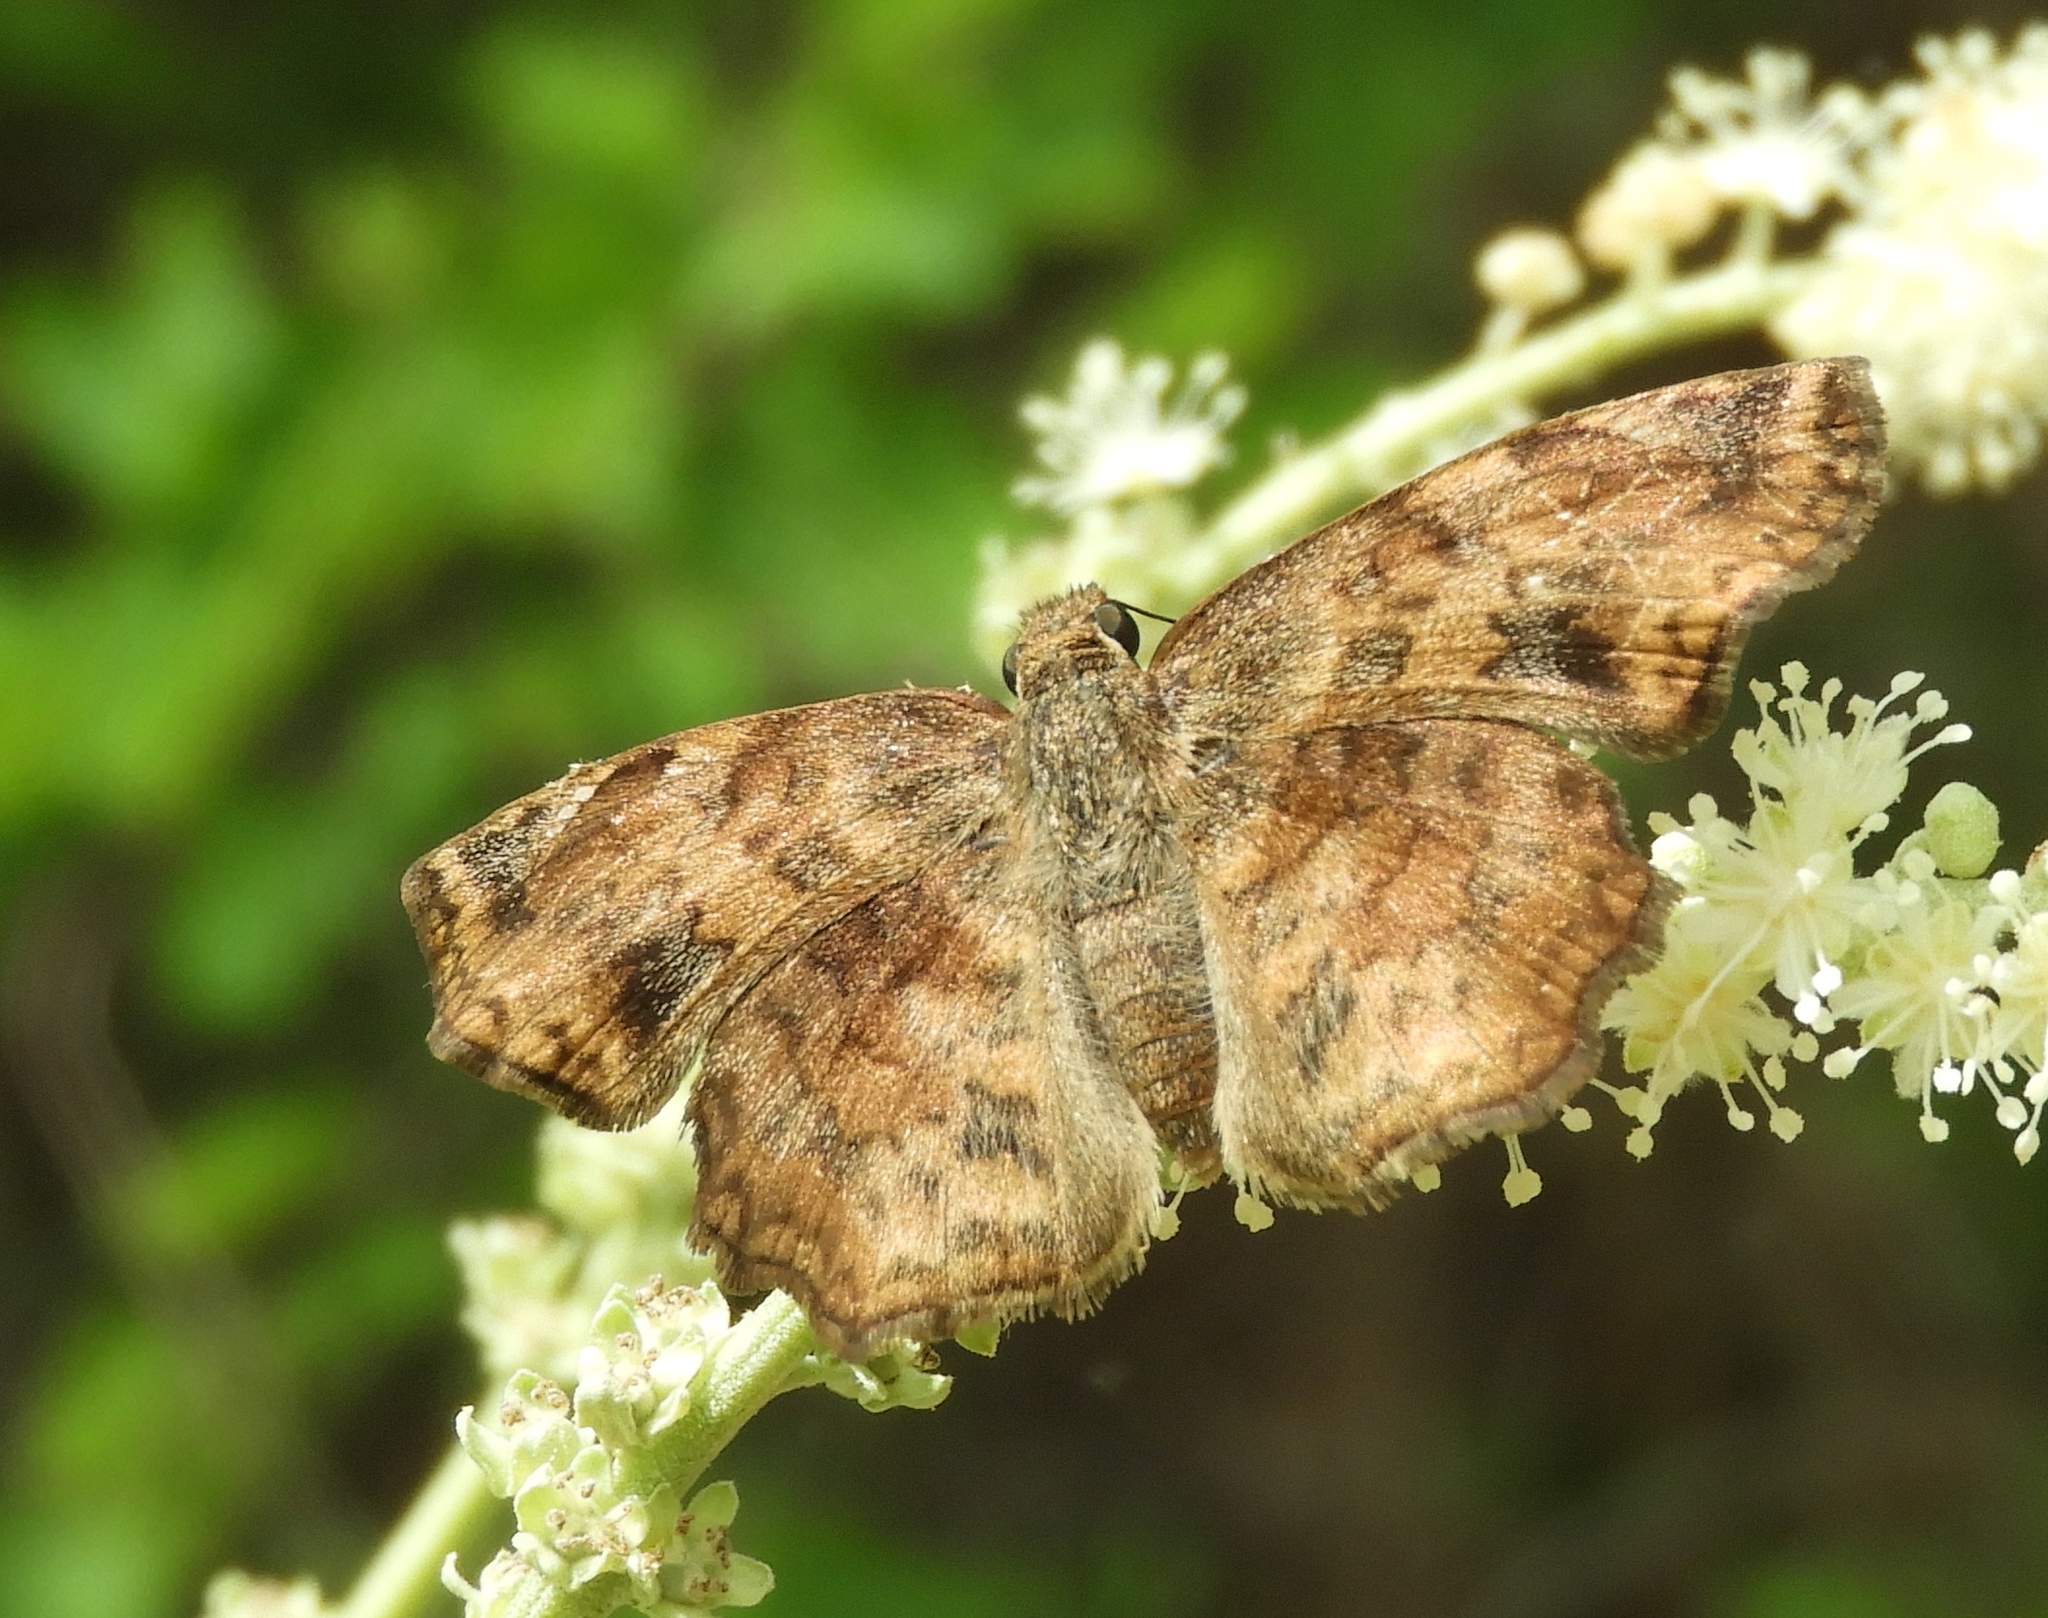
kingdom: Animalia
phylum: Arthropoda
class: Insecta
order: Lepidoptera
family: Hesperiidae
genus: Antigonus
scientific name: Antigonus erosus
